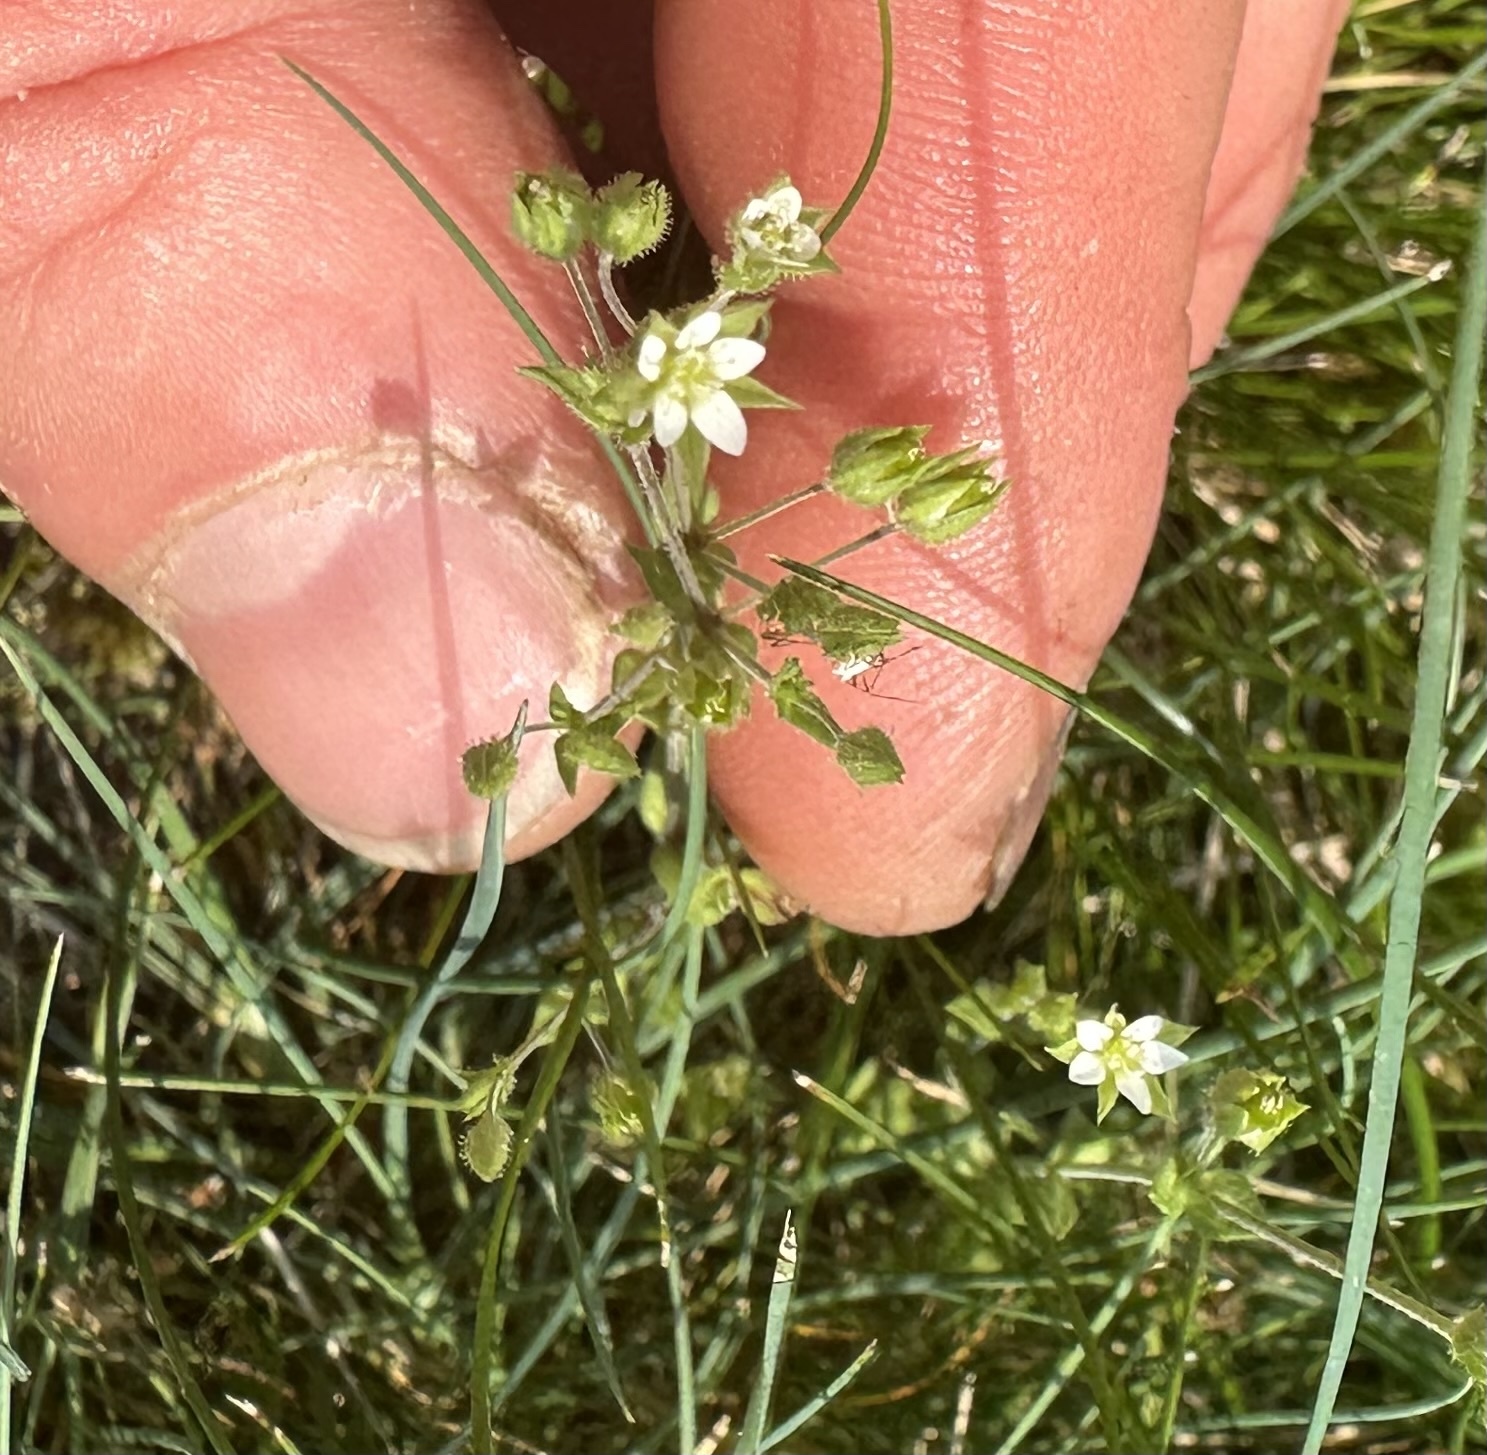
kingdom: Plantae
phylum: Tracheophyta
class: Magnoliopsida
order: Caryophyllales
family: Caryophyllaceae
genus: Arenaria
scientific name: Arenaria serpyllifolia
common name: Thyme-leaved sandwort
